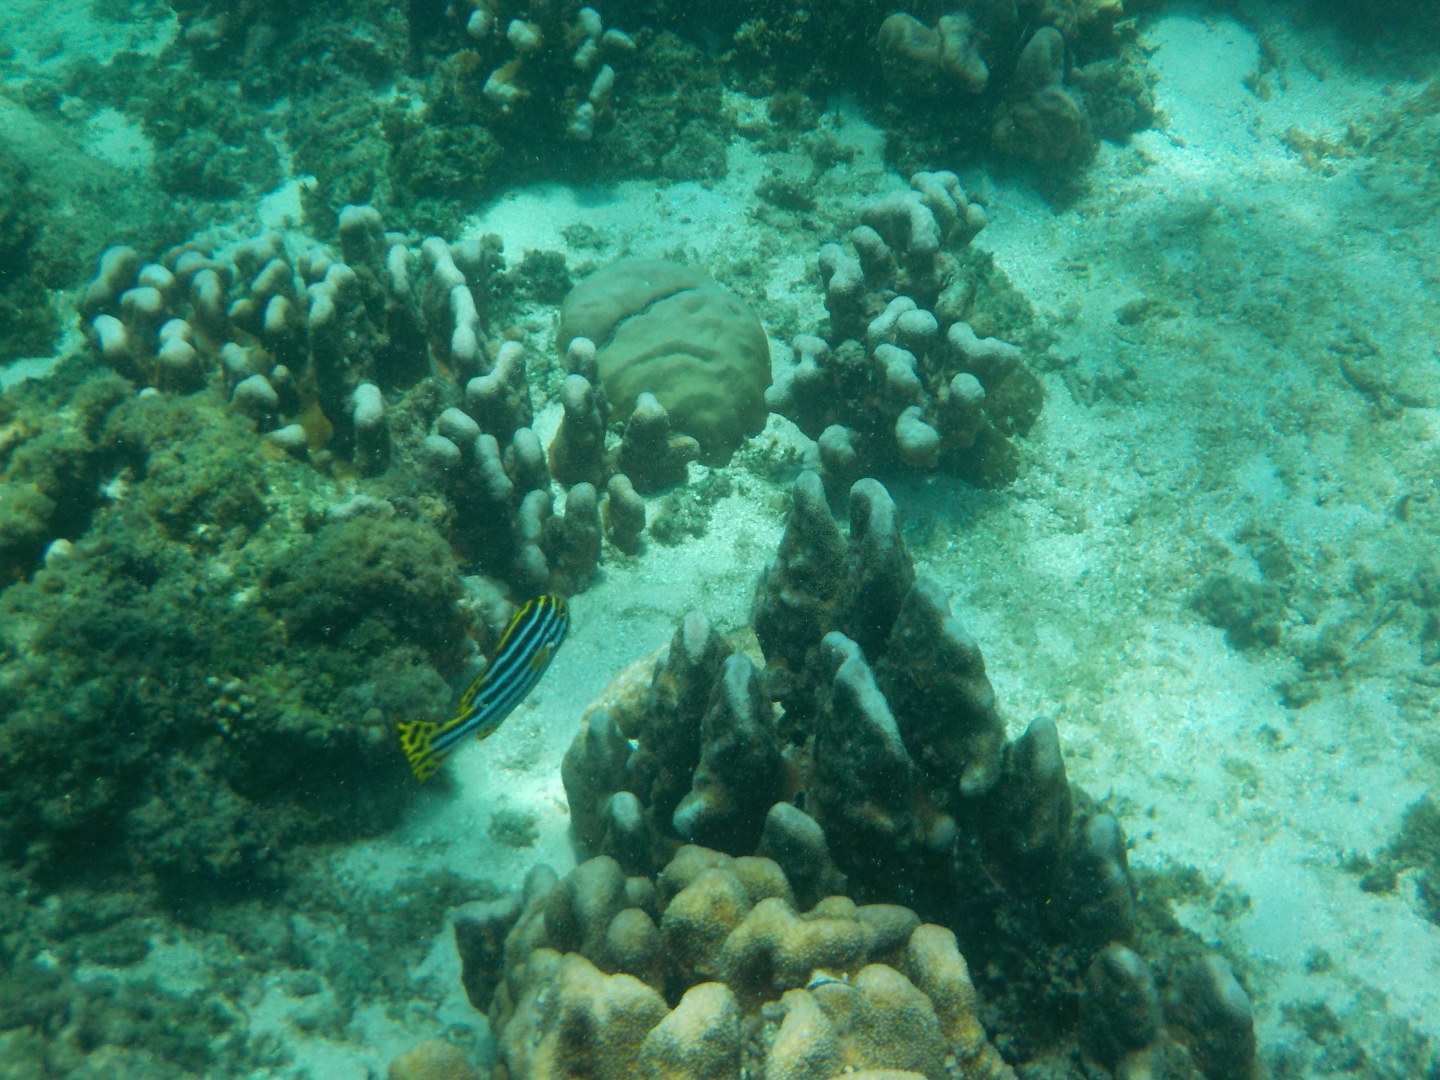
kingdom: Animalia
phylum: Chordata
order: Perciformes
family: Haemulidae
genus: Plectorhinchus
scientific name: Plectorhinchus vittatus
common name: Oriental sweetlips
